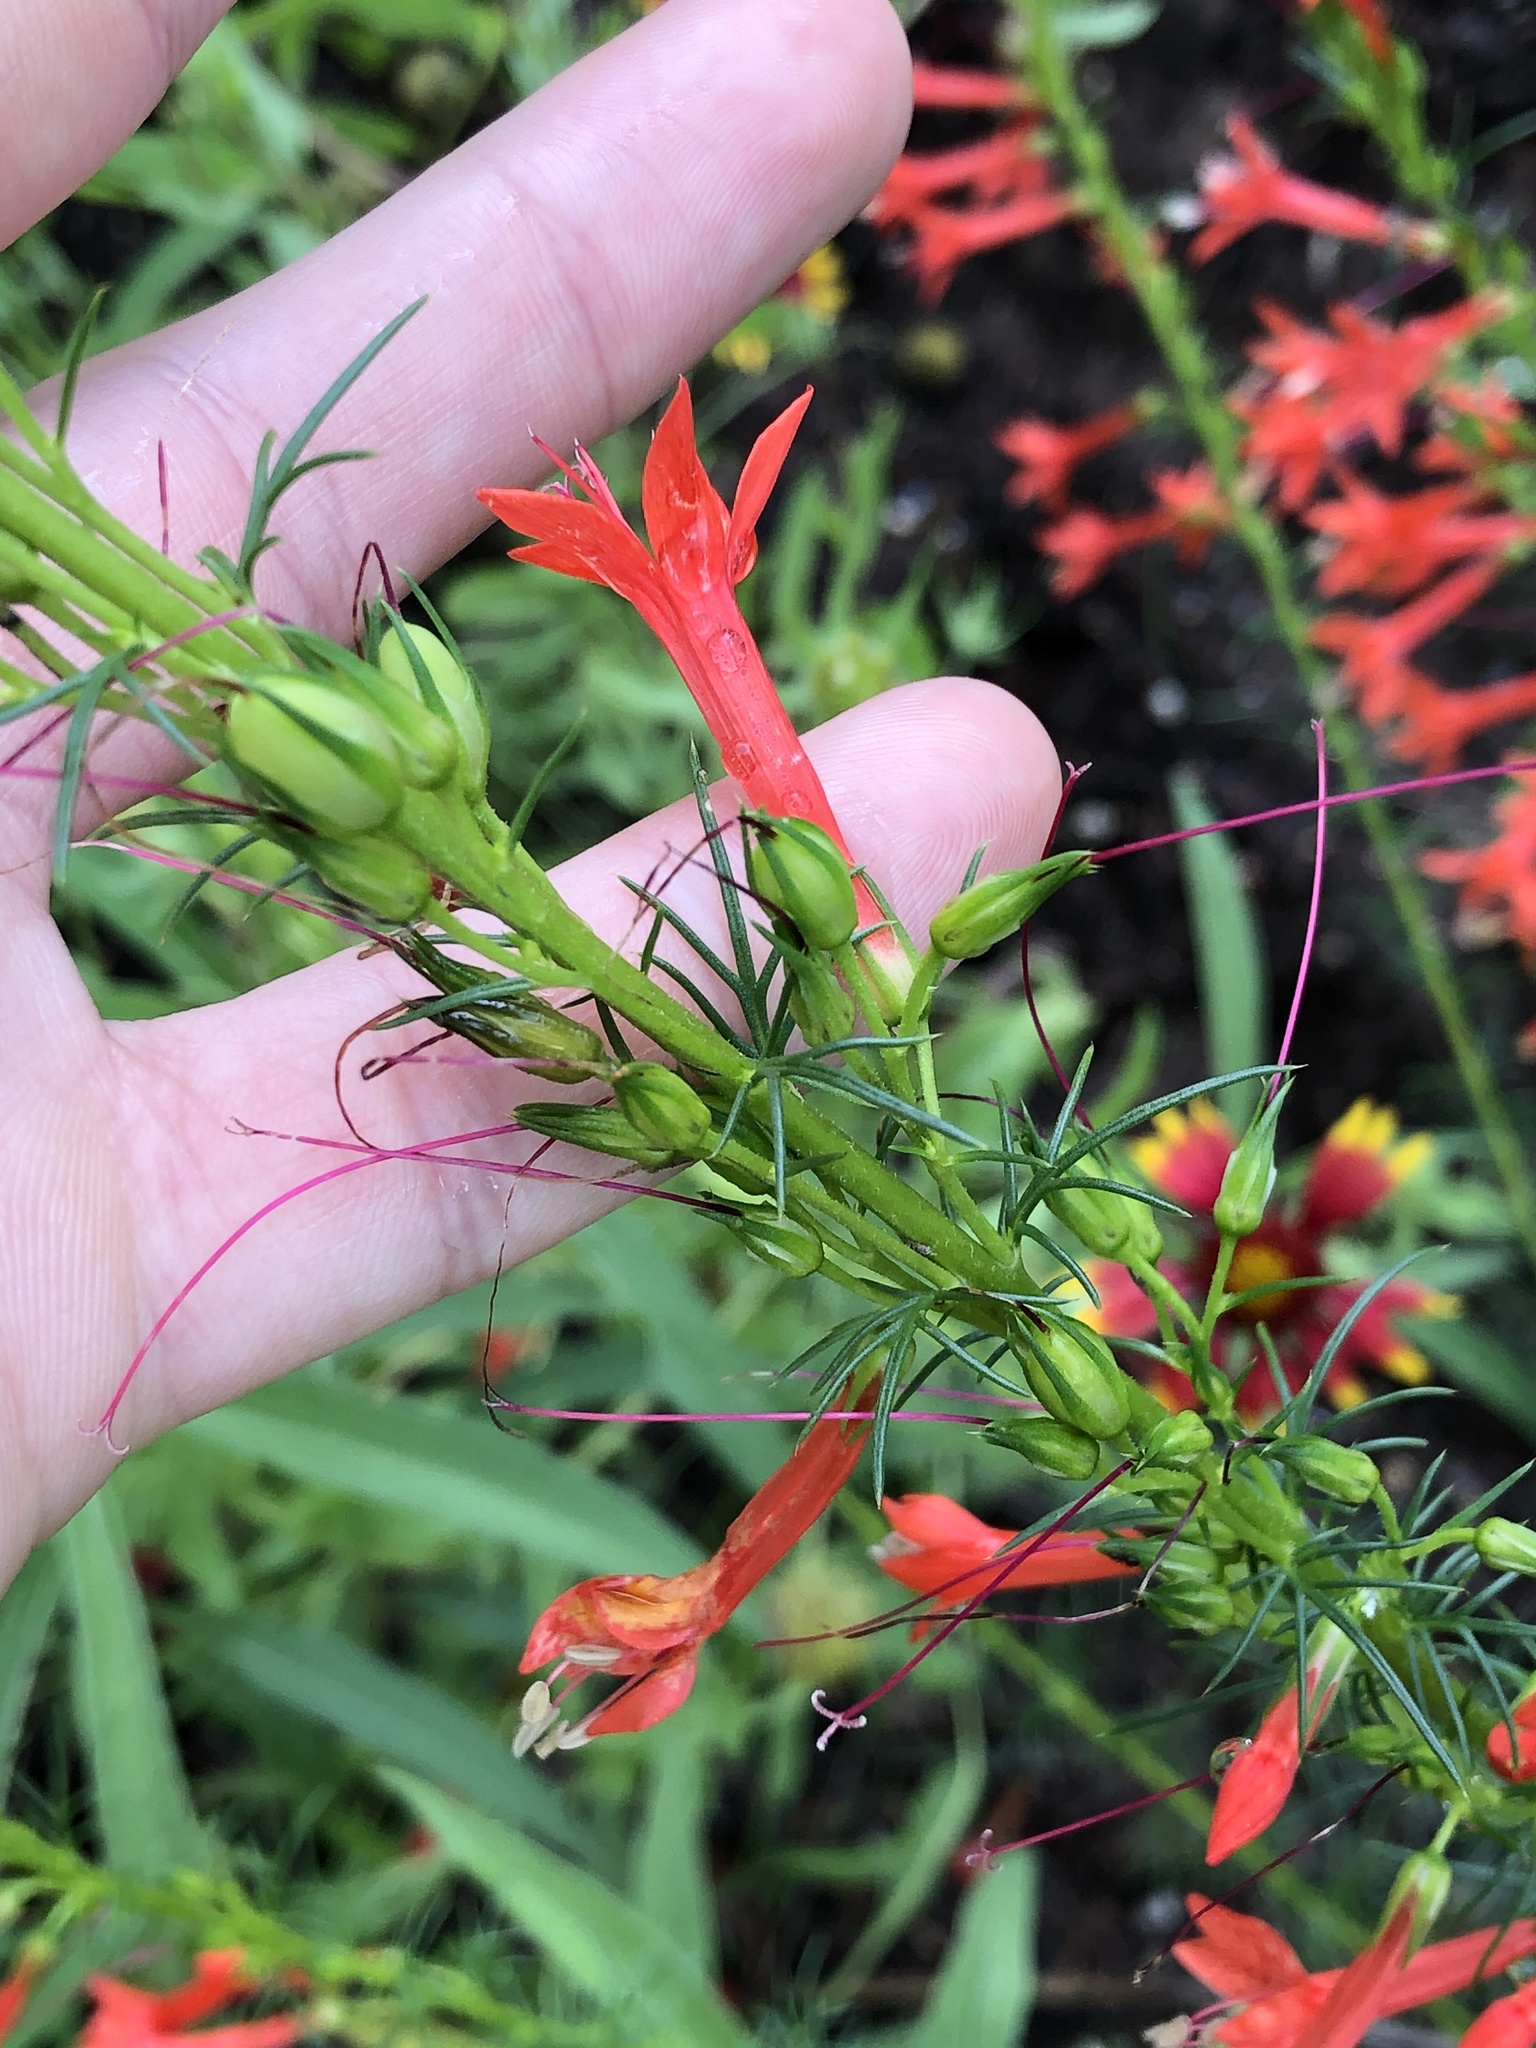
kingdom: Plantae
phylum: Tracheophyta
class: Magnoliopsida
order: Ericales
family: Polemoniaceae
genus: Ipomopsis
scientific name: Ipomopsis rubra
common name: Skyrocket
